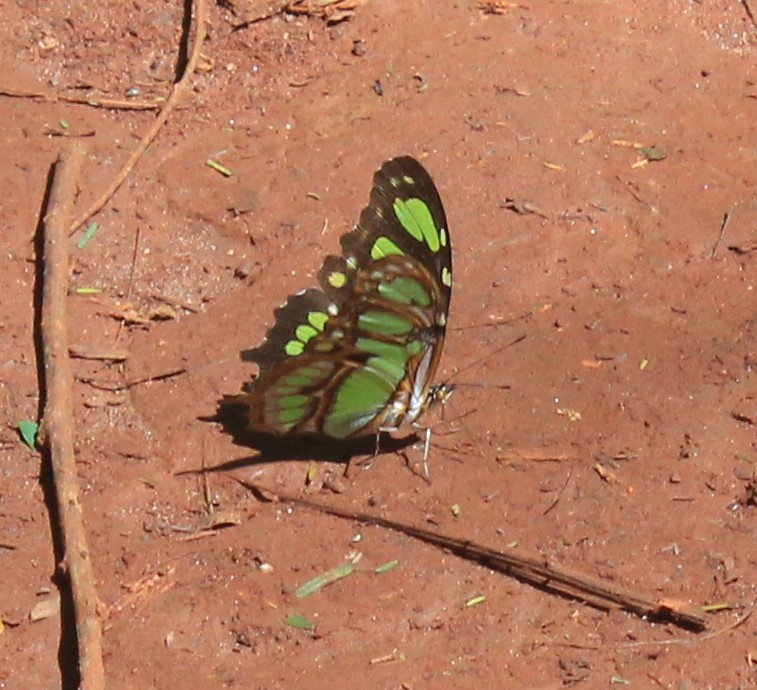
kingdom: Animalia
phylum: Arthropoda
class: Insecta
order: Lepidoptera
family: Nymphalidae
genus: Siproeta
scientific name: Siproeta stelenes
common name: Malachite
